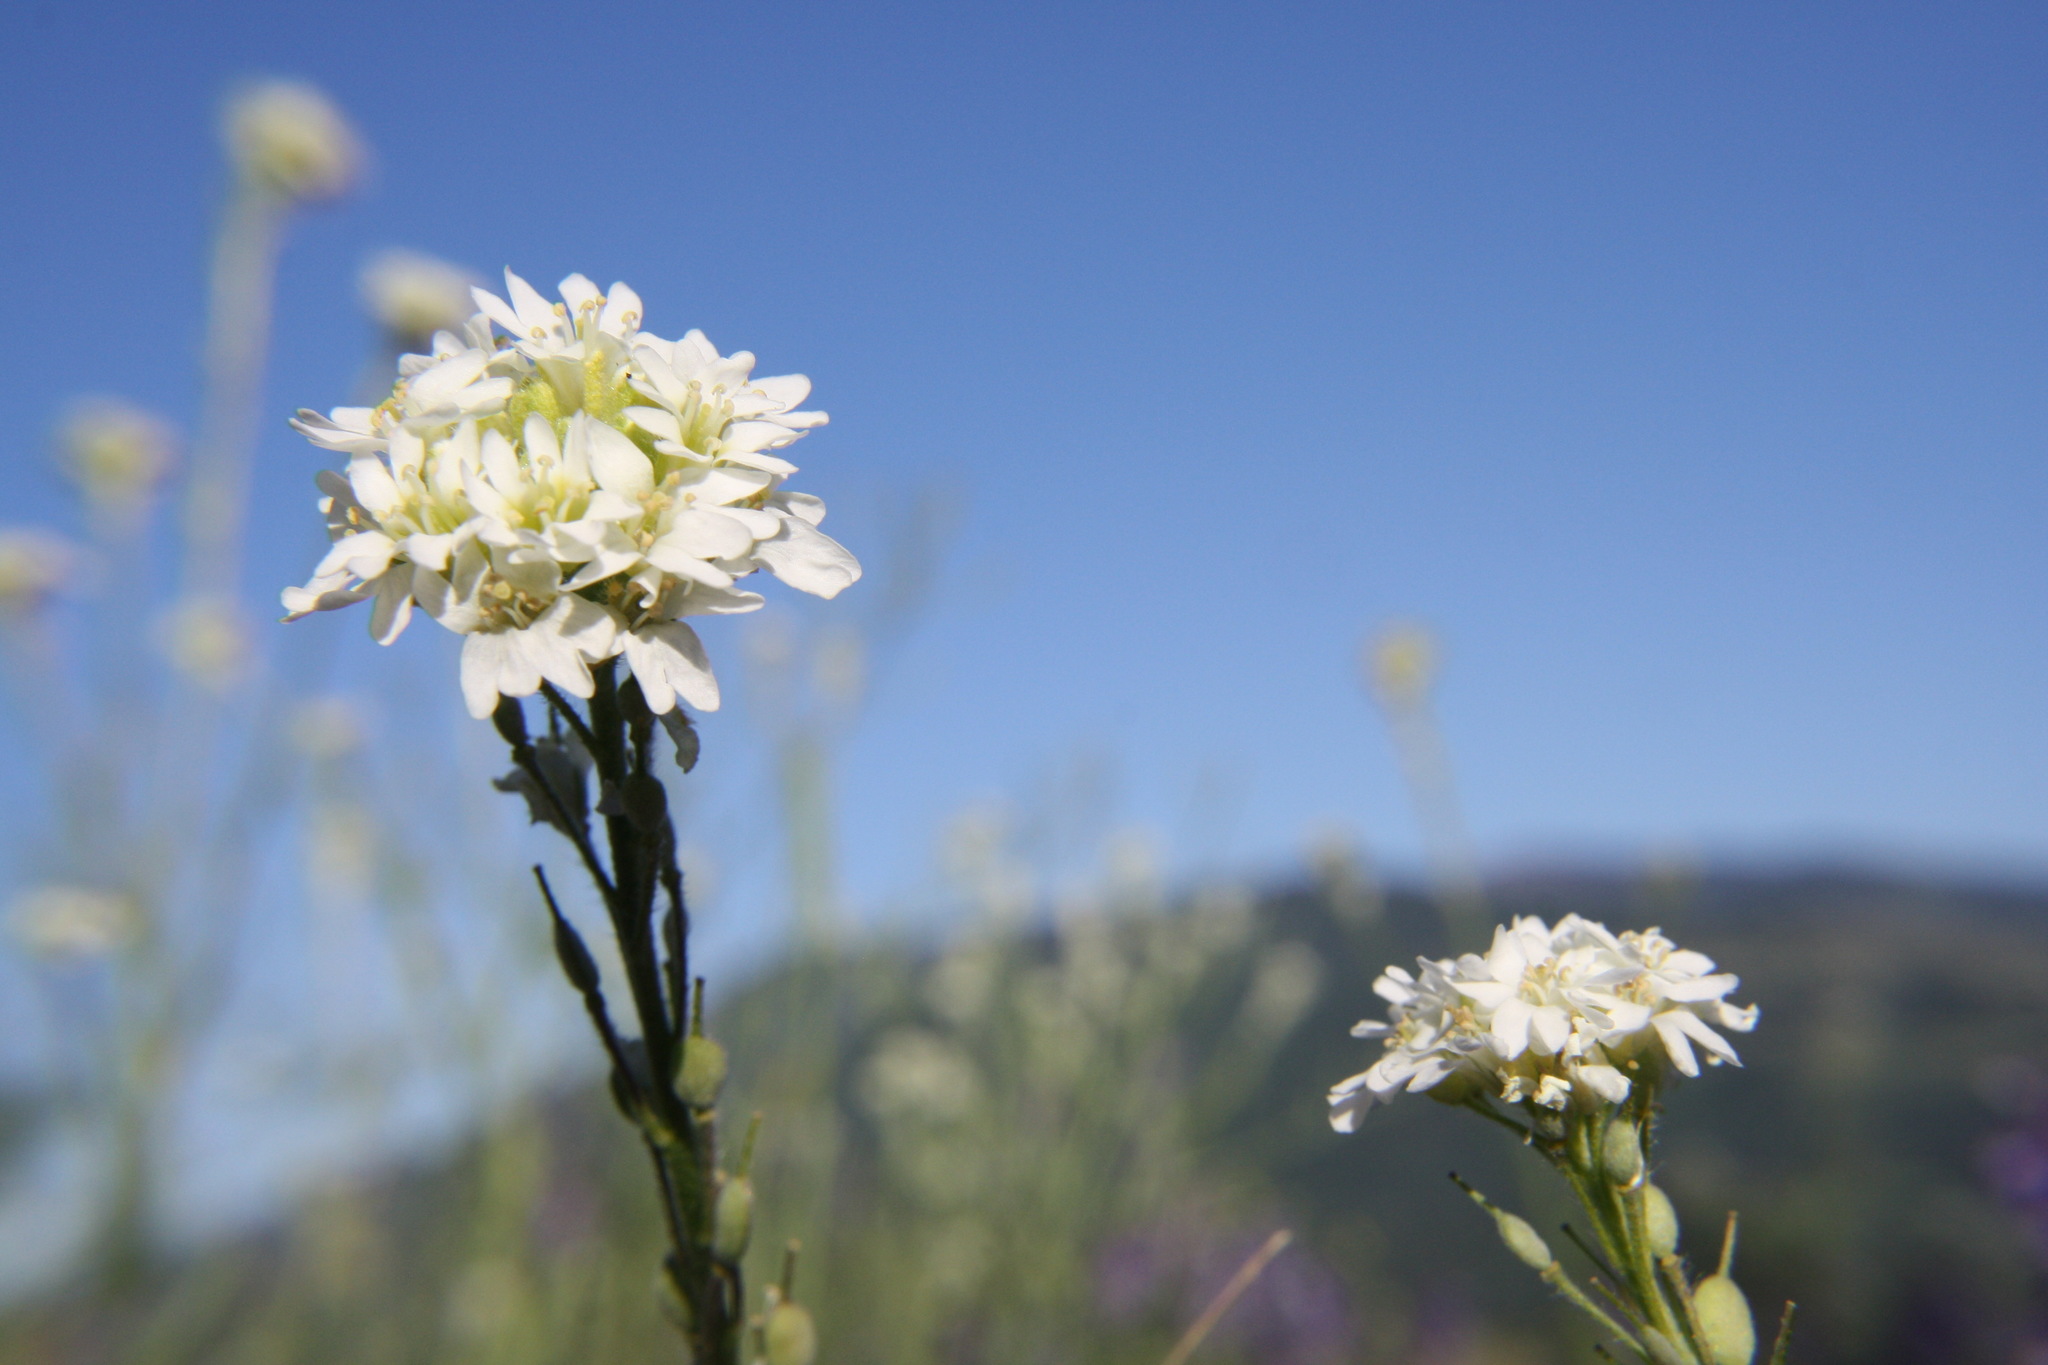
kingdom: Plantae
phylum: Tracheophyta
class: Magnoliopsida
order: Brassicales
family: Brassicaceae
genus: Berteroa
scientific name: Berteroa incana
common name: Hoary alison
